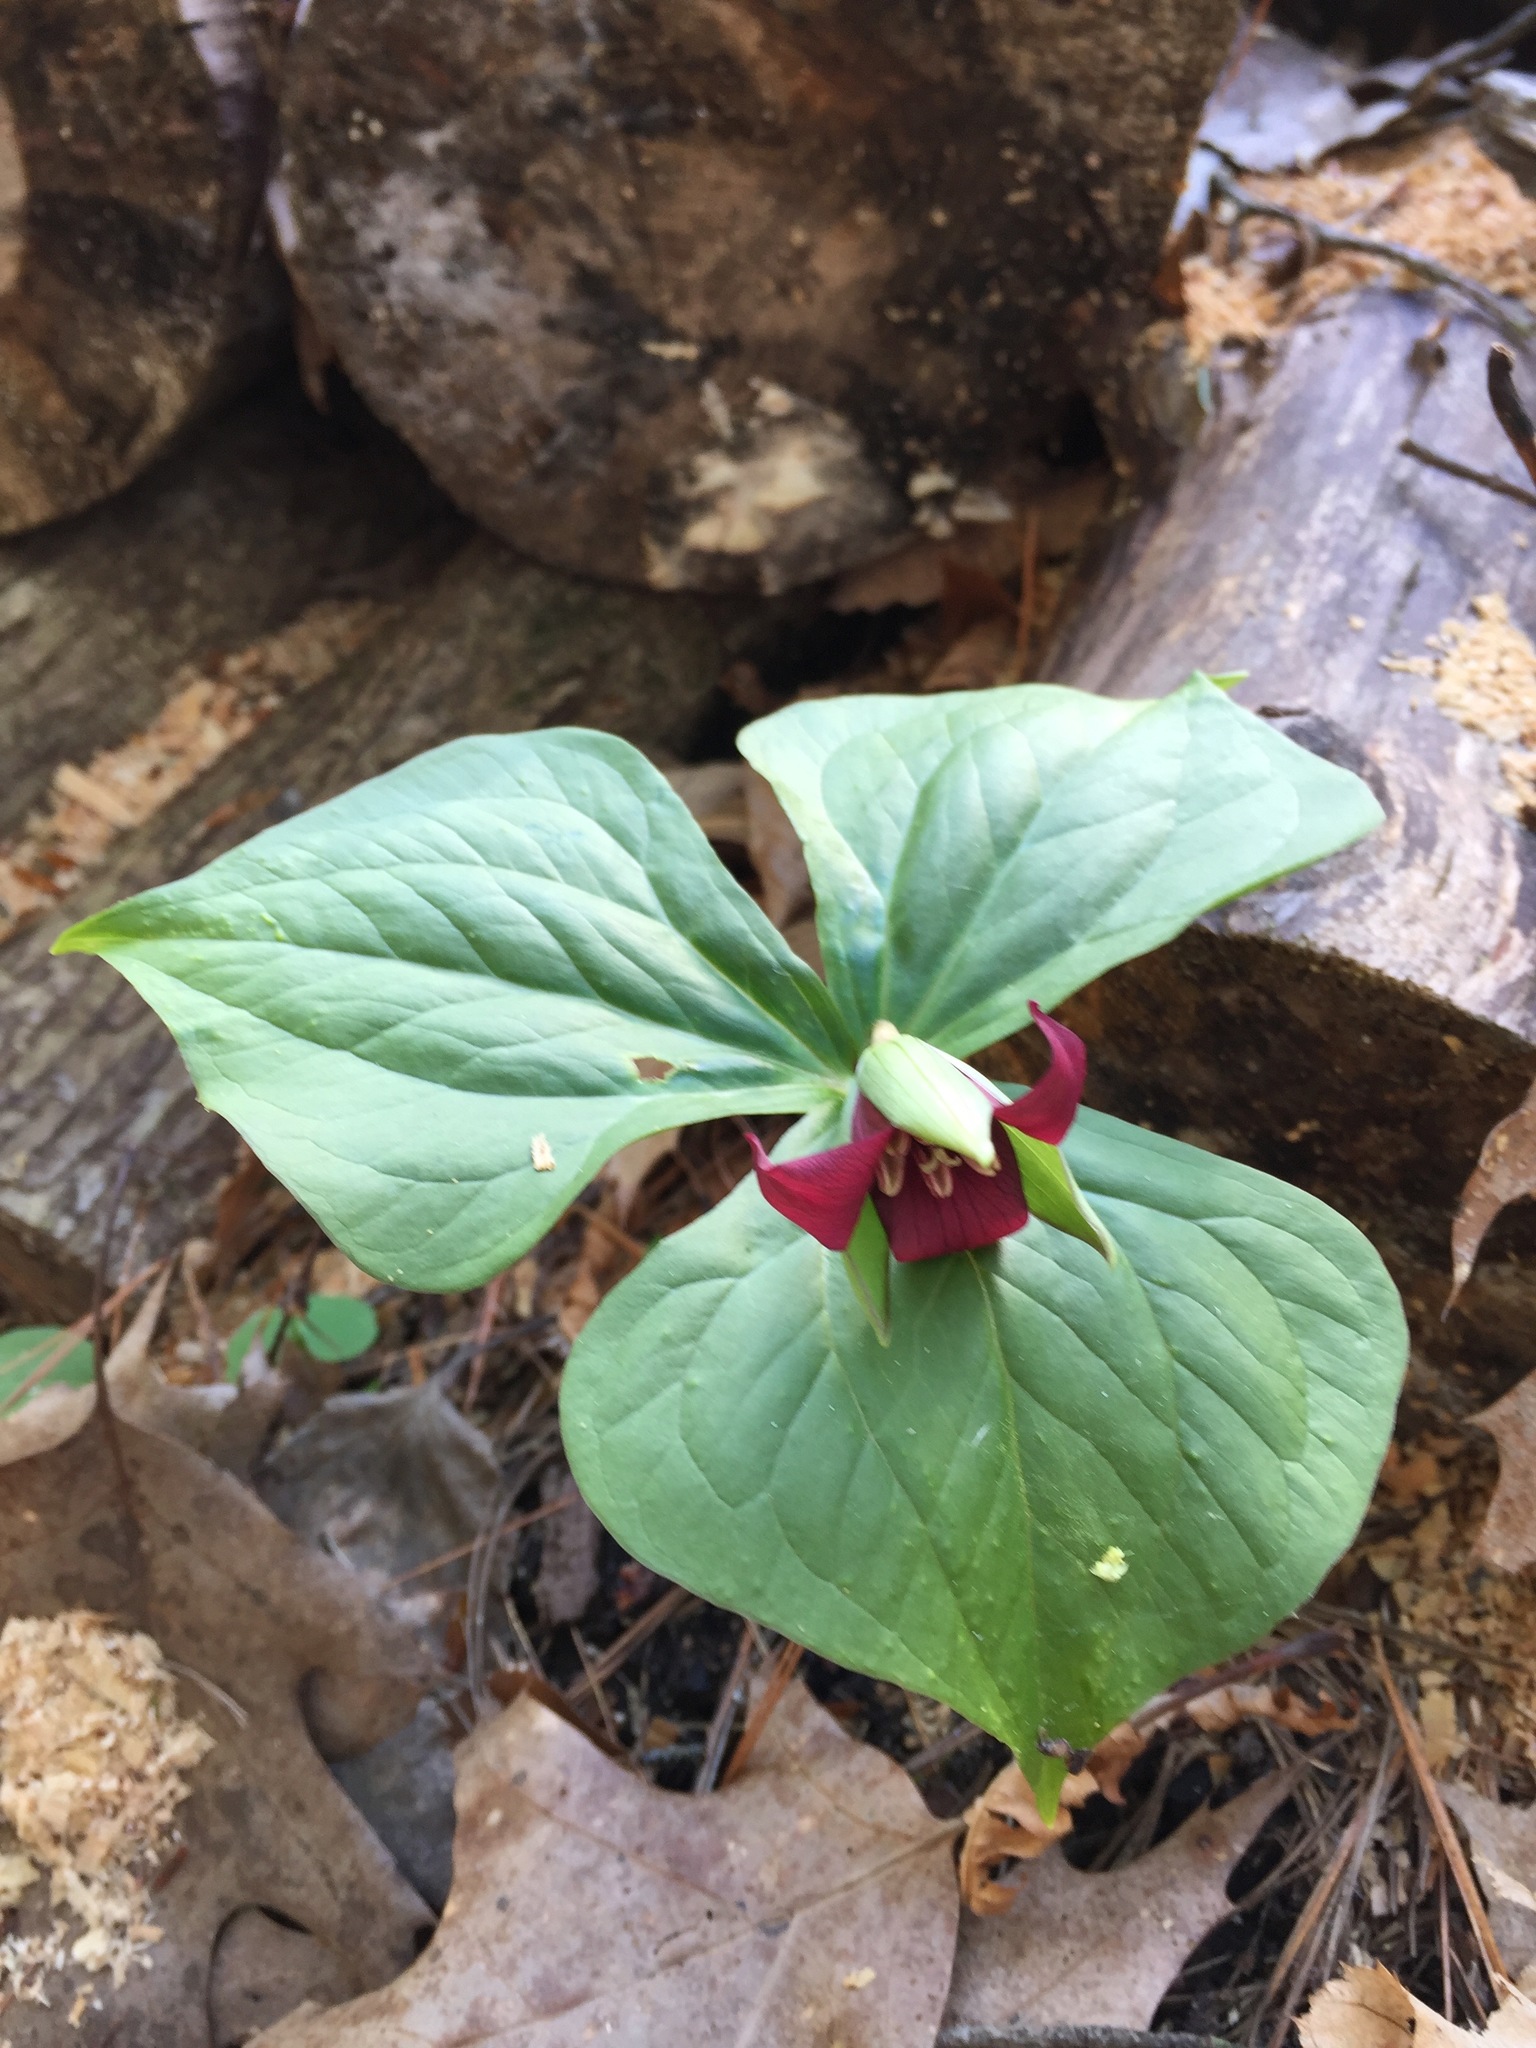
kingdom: Plantae
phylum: Tracheophyta
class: Liliopsida
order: Liliales
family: Melanthiaceae
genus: Trillium
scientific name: Trillium erectum
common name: Purple trillium
